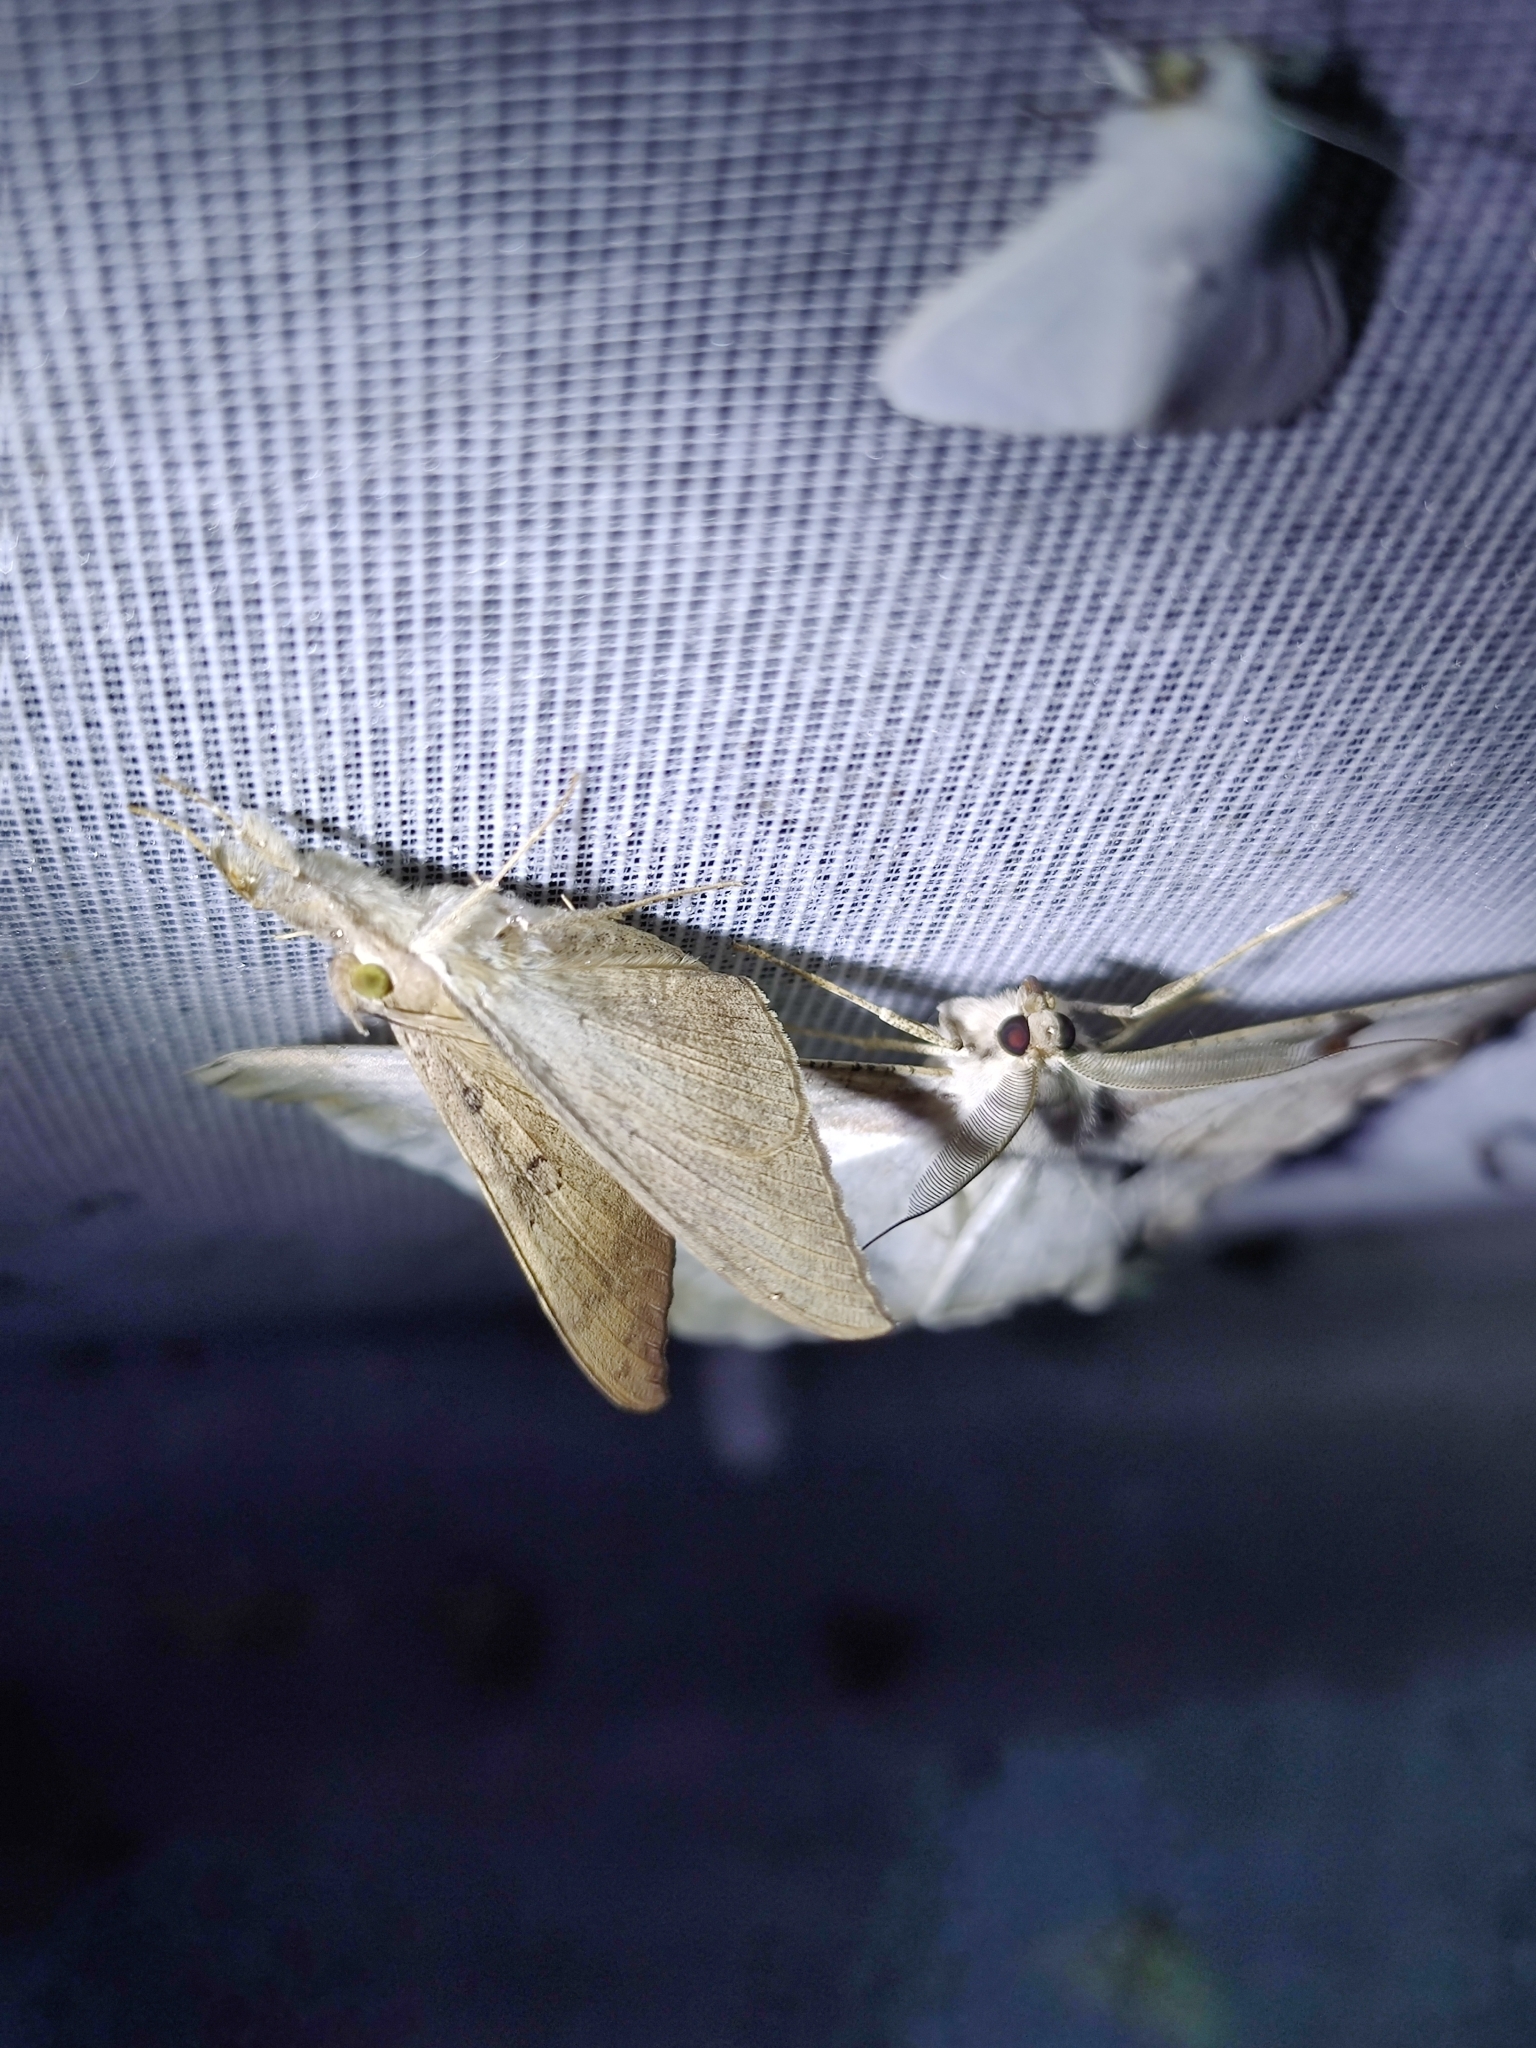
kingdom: Animalia
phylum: Arthropoda
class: Insecta
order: Lepidoptera
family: Erebidae
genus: Oxyodes
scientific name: Oxyodes scrobiculata
